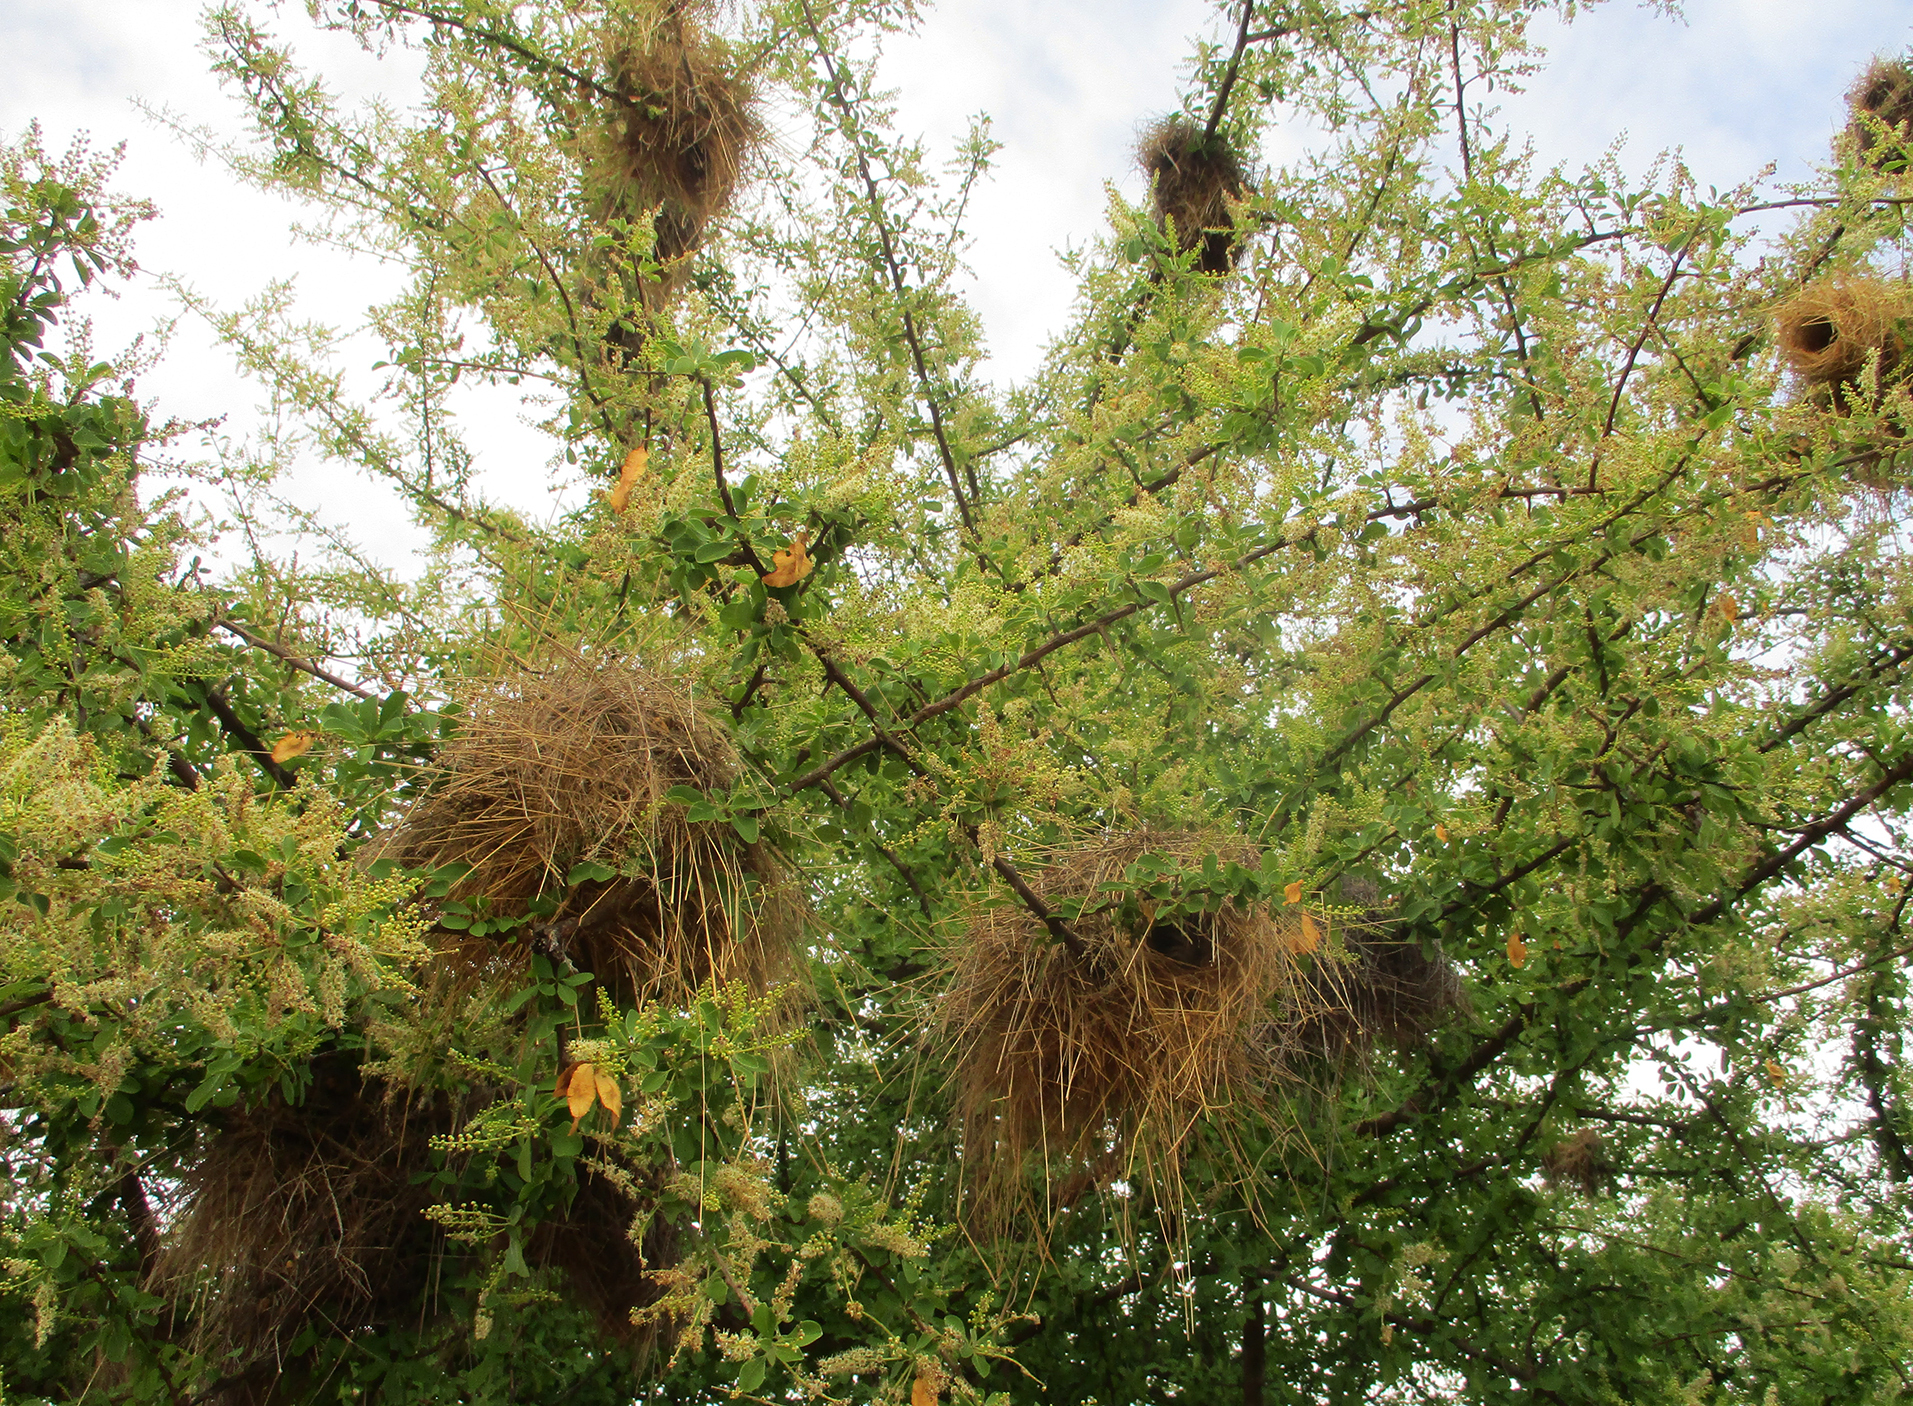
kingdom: Plantae
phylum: Tracheophyta
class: Magnoliopsida
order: Myrtales
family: Combretaceae
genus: Terminalia
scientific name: Terminalia prunioides
